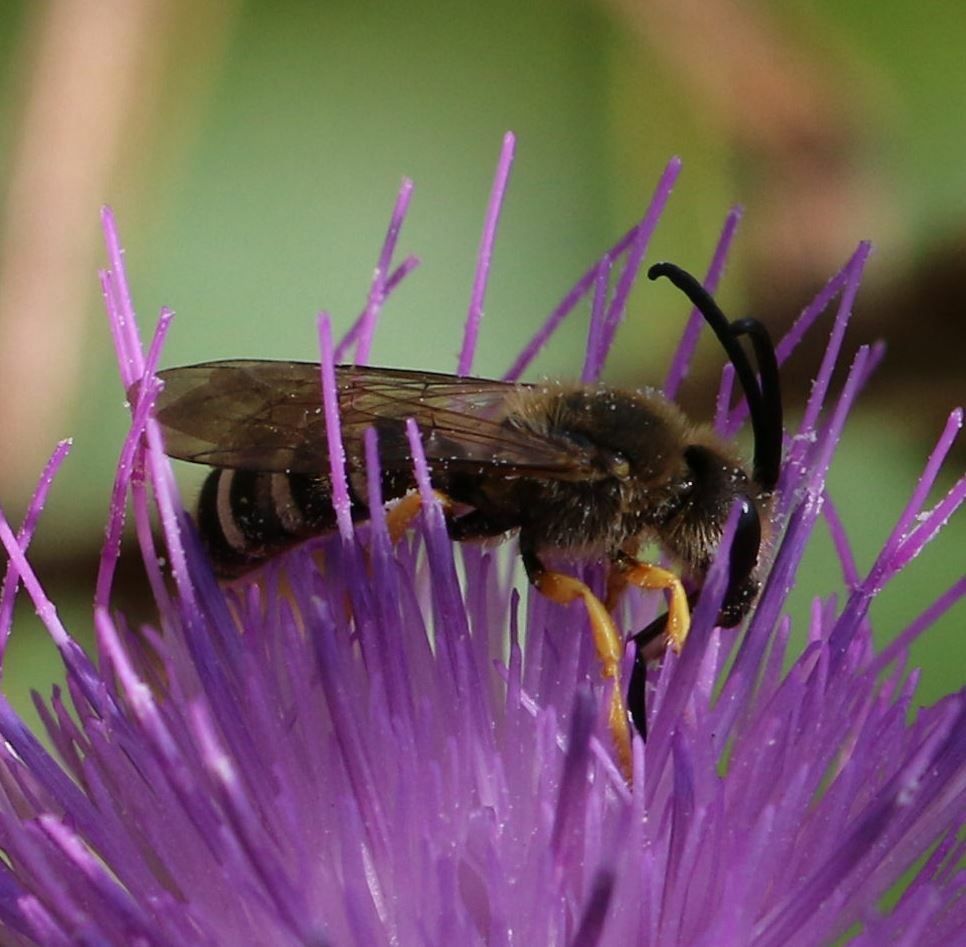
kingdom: Animalia
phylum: Arthropoda
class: Insecta
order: Hymenoptera
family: Halictidae
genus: Halictus
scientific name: Halictus scabiosae
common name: Great banded furrow bee
